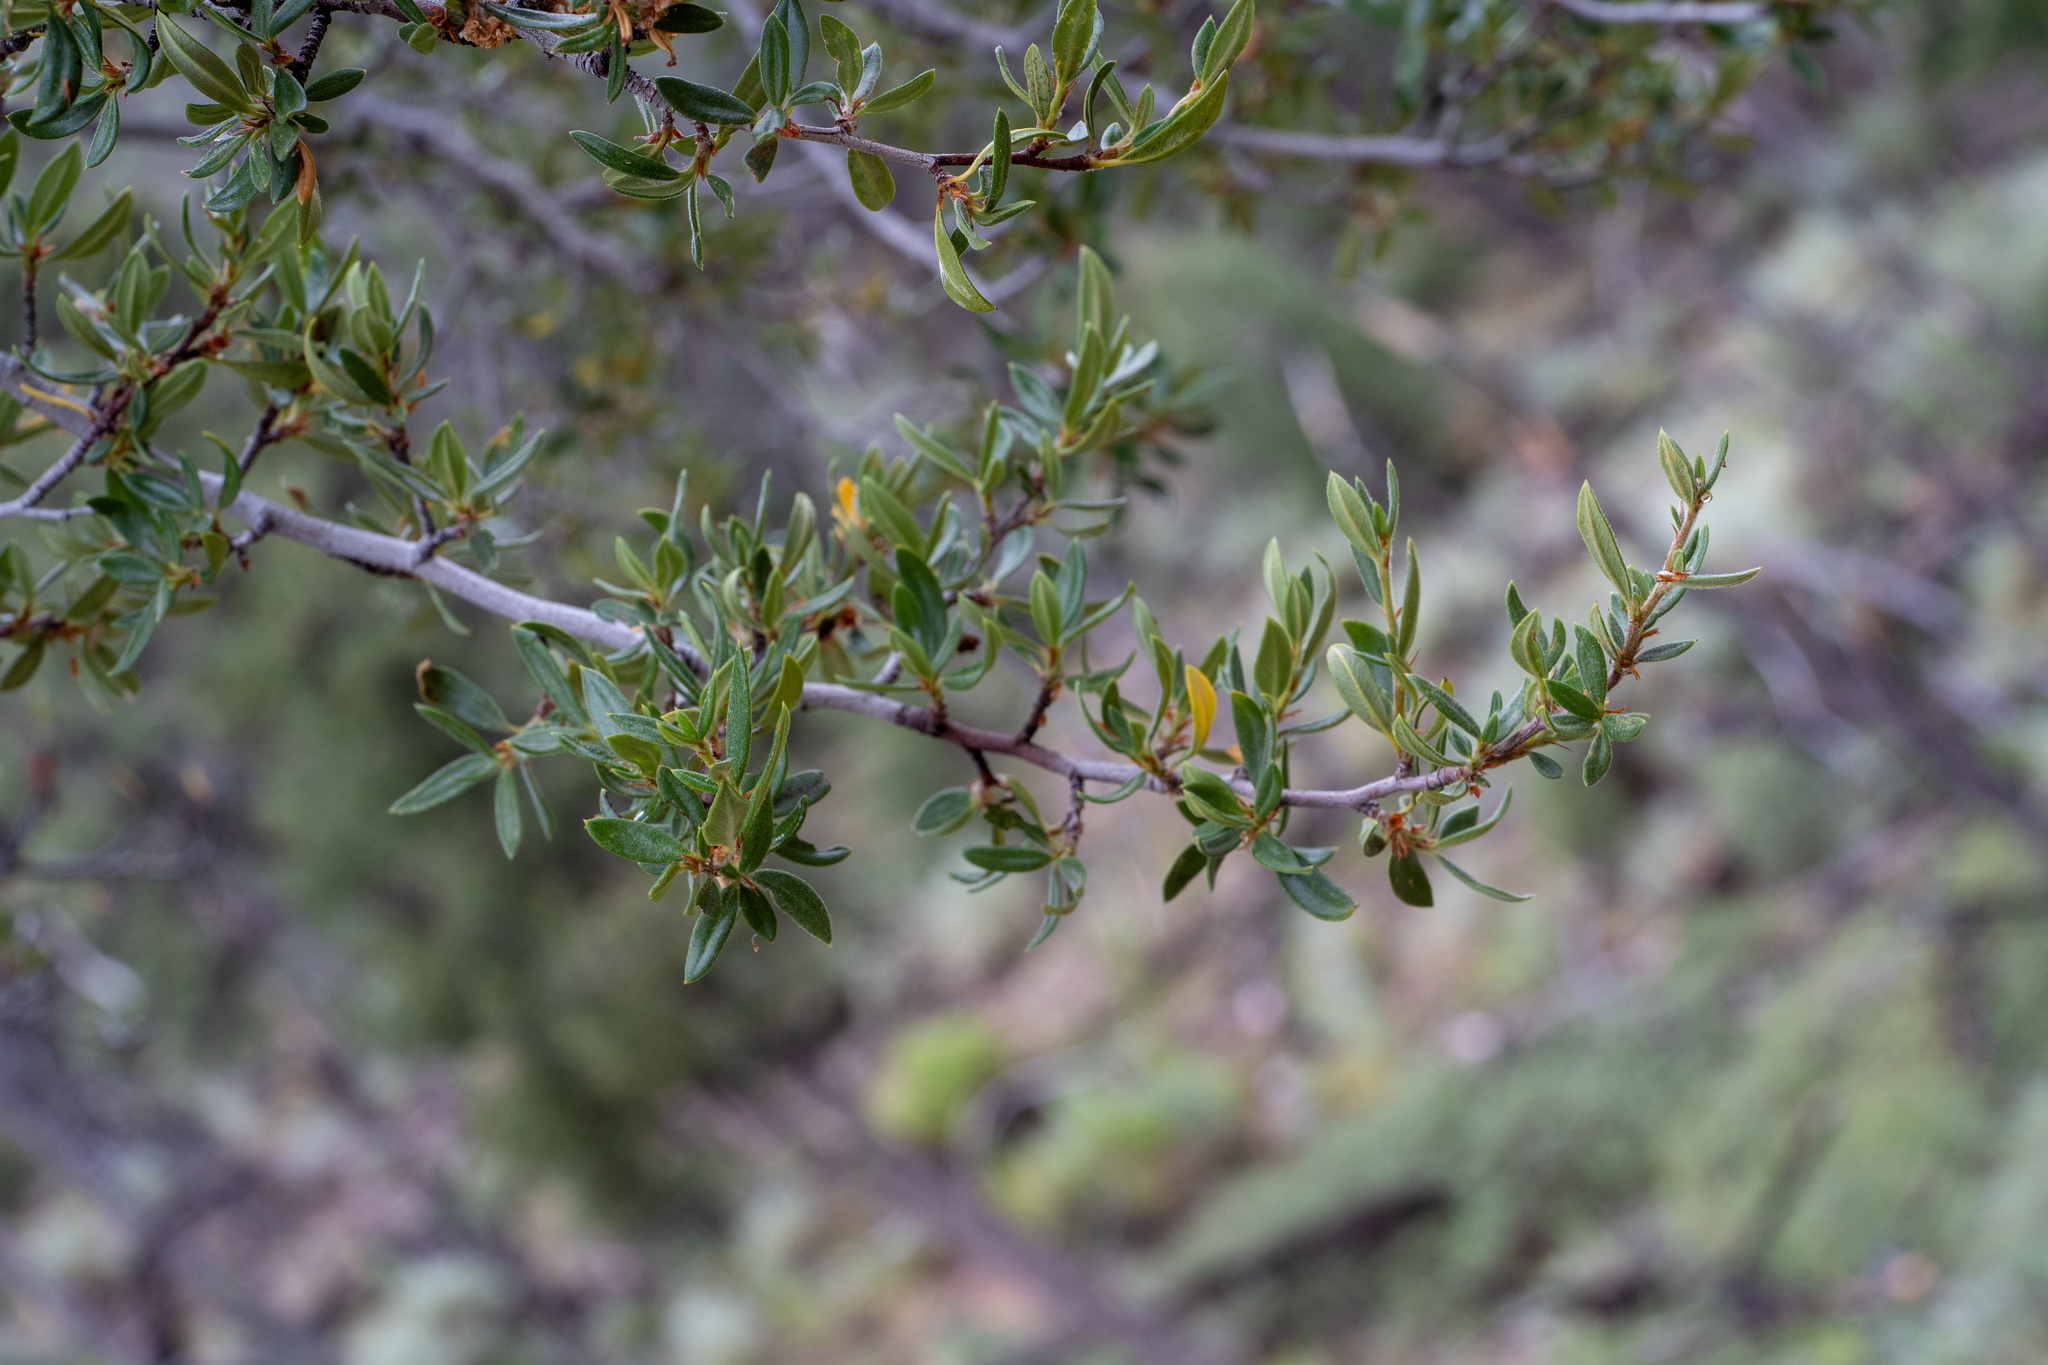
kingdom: Plantae
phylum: Tracheophyta
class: Magnoliopsida
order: Rosales
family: Rosaceae
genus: Cercocarpus
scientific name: Cercocarpus ledifolius
